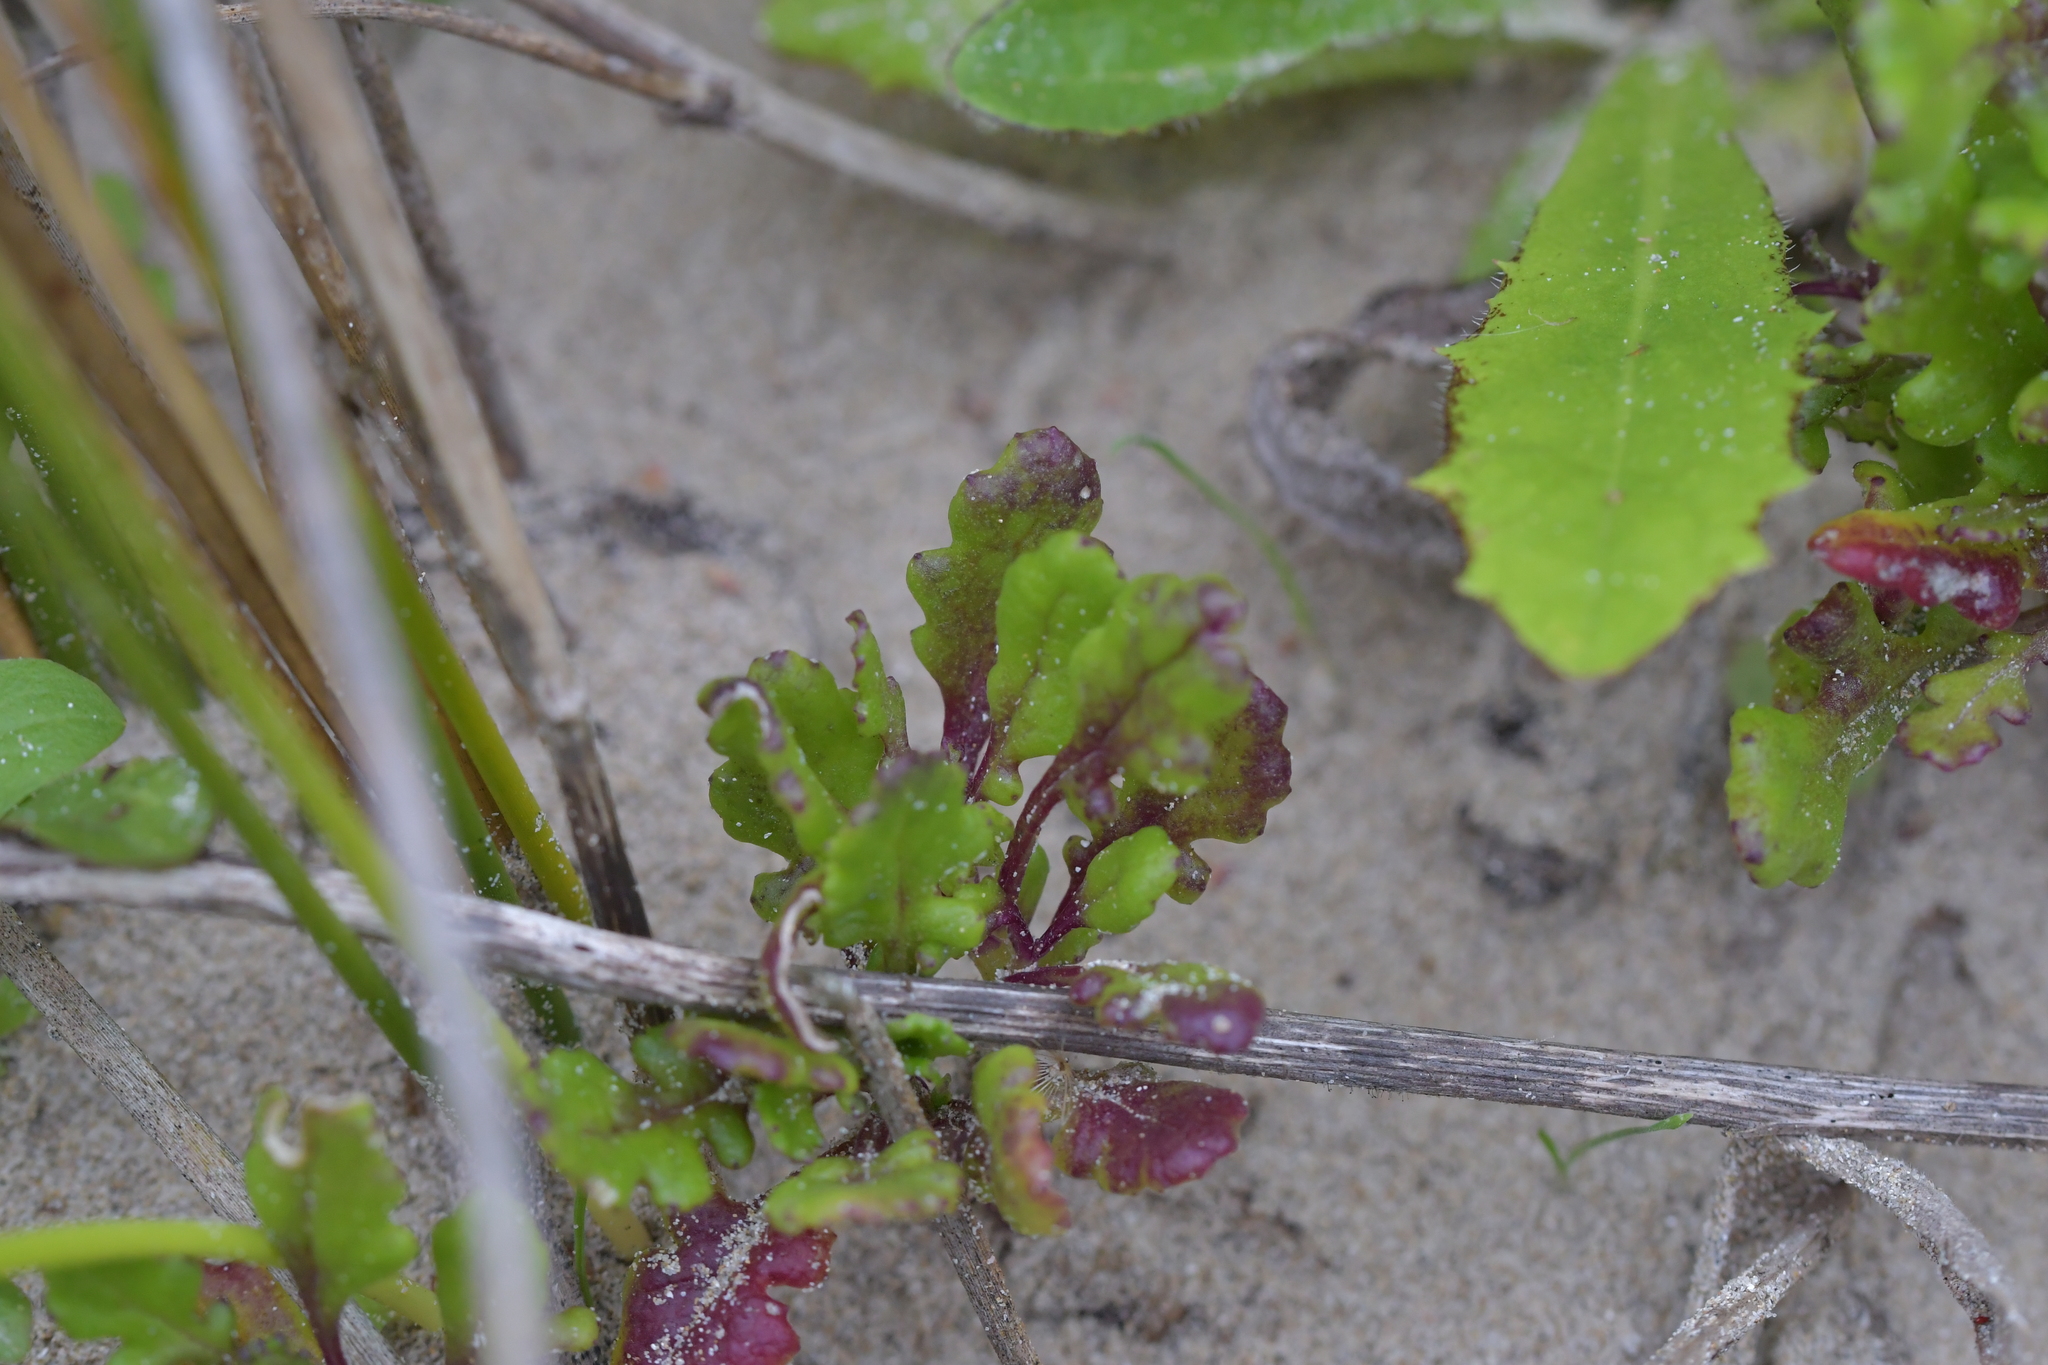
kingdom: Plantae
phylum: Tracheophyta
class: Magnoliopsida
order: Asterales
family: Asteraceae
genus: Senecio
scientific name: Senecio elegans
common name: Purple groundsel
